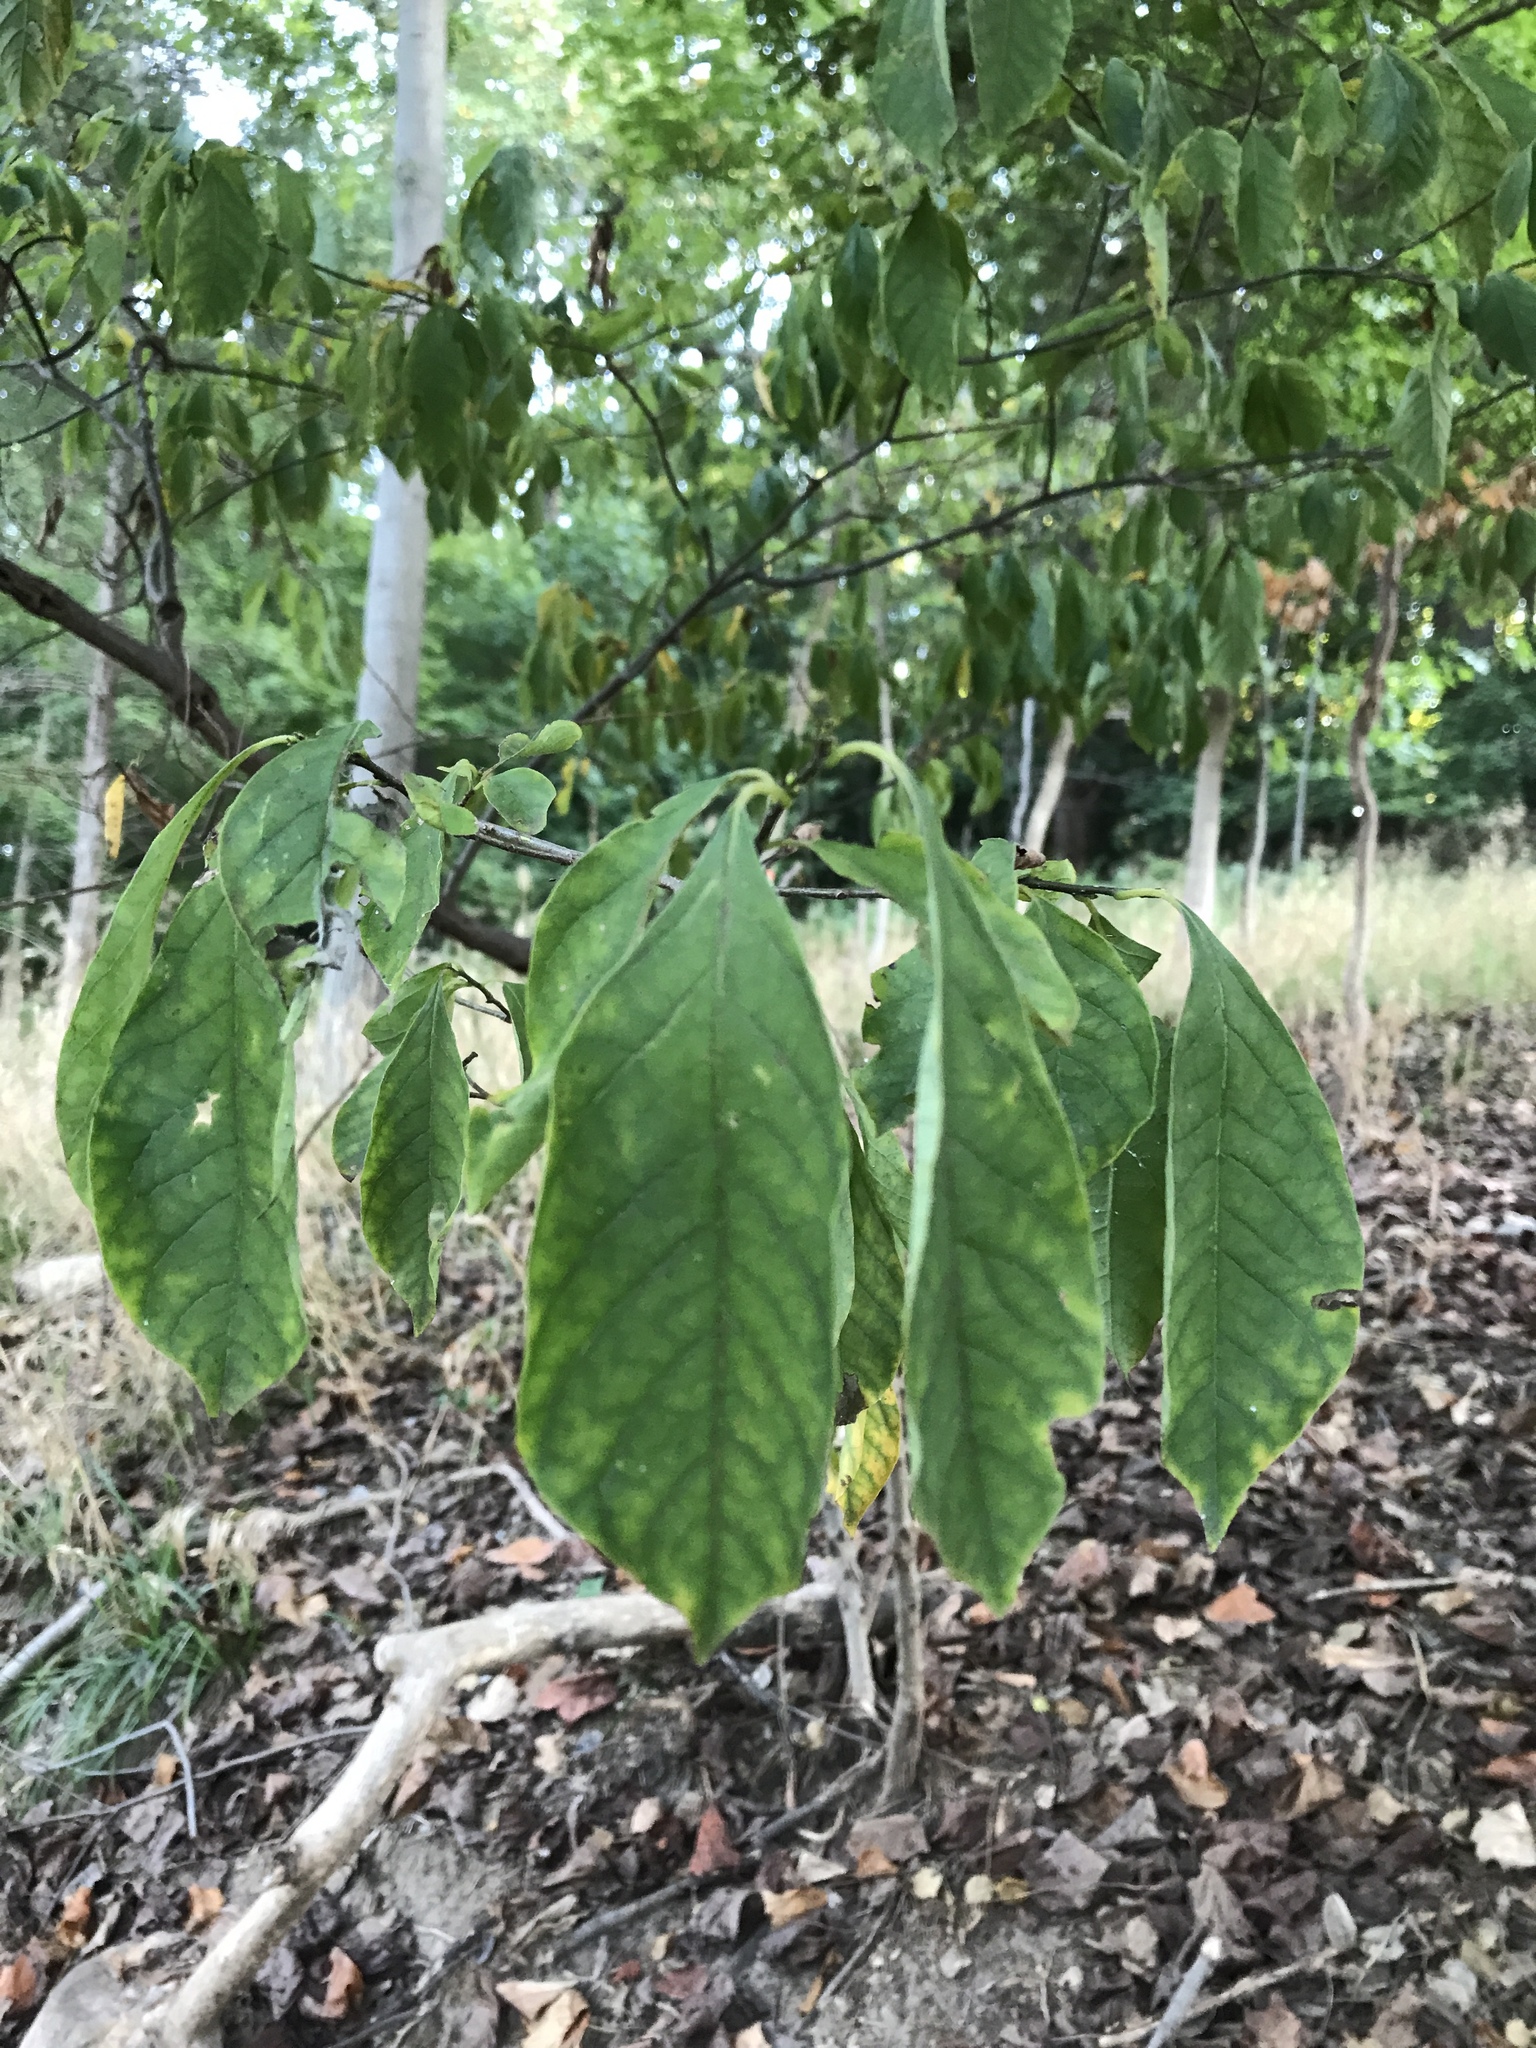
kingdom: Plantae
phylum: Tracheophyta
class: Magnoliopsida
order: Laurales
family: Lauraceae
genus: Lindera
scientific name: Lindera benzoin
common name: Spicebush
